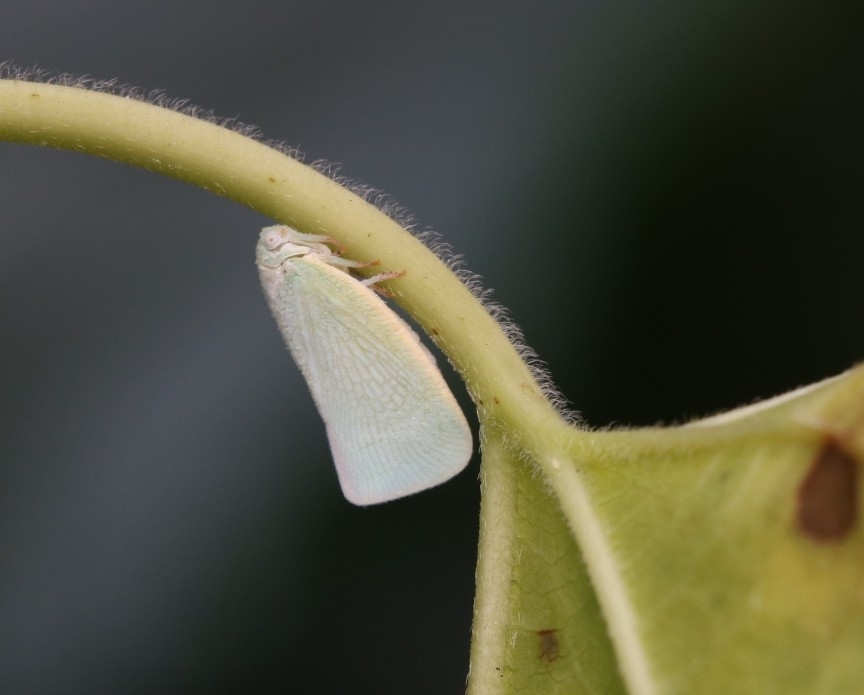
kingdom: Animalia
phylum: Arthropoda
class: Insecta
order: Hemiptera
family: Flatidae
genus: Flatormenis
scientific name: Flatormenis proxima
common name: Northern flatid planthopper
